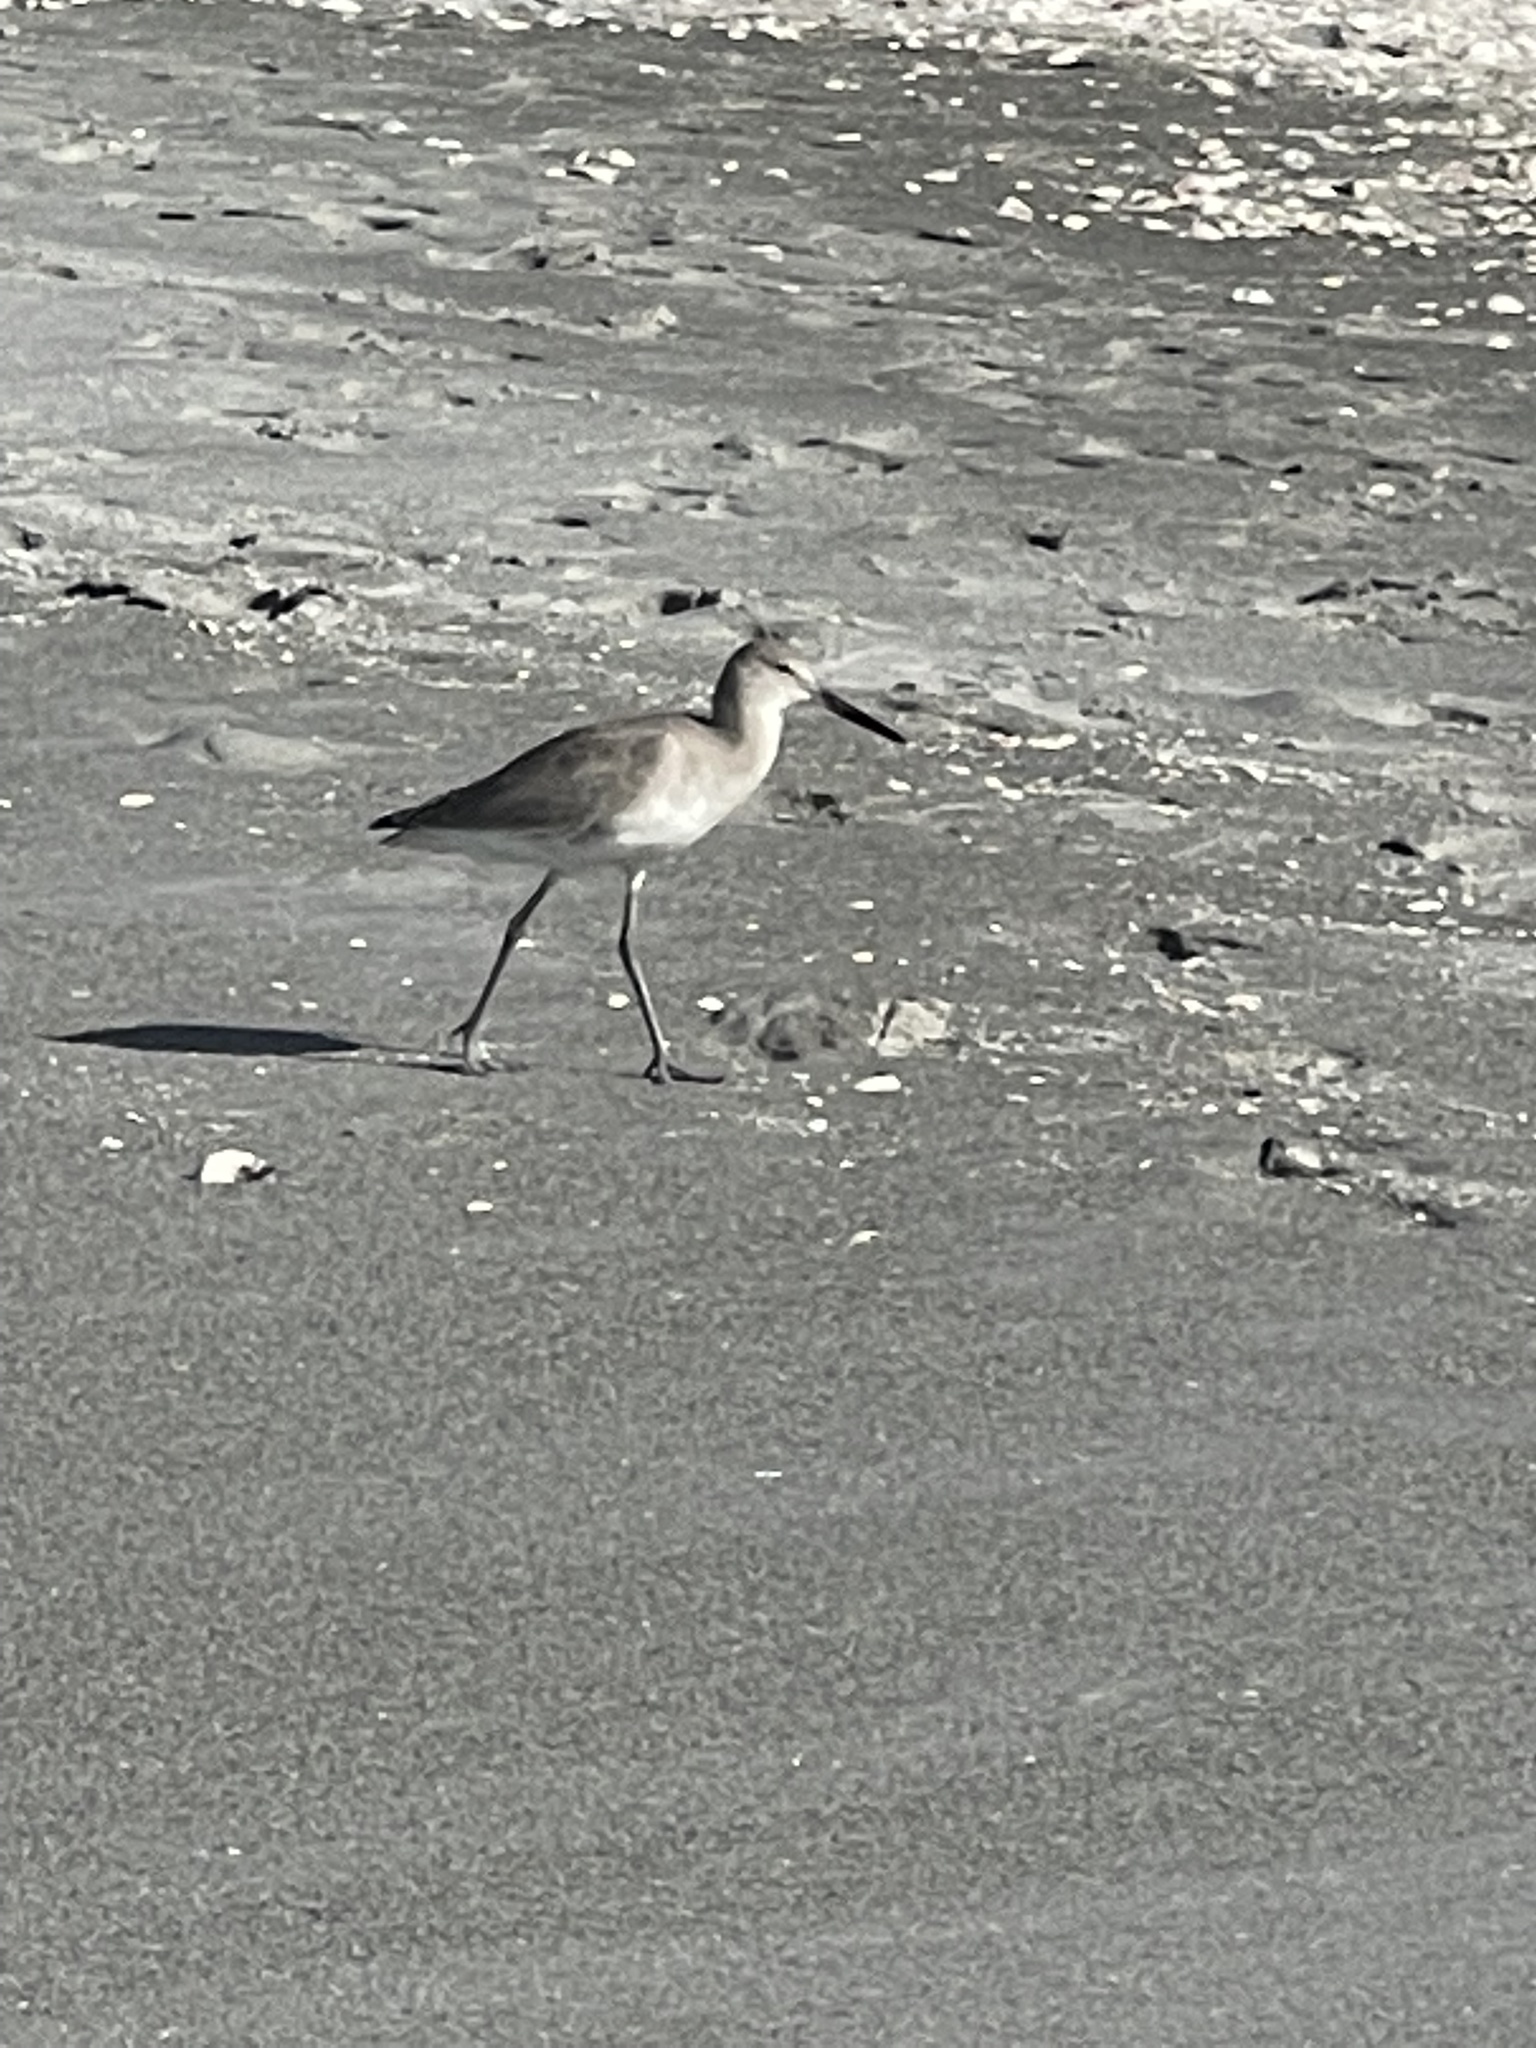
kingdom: Animalia
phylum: Chordata
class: Aves
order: Charadriiformes
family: Scolopacidae
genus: Tringa
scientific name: Tringa semipalmata
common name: Willet
